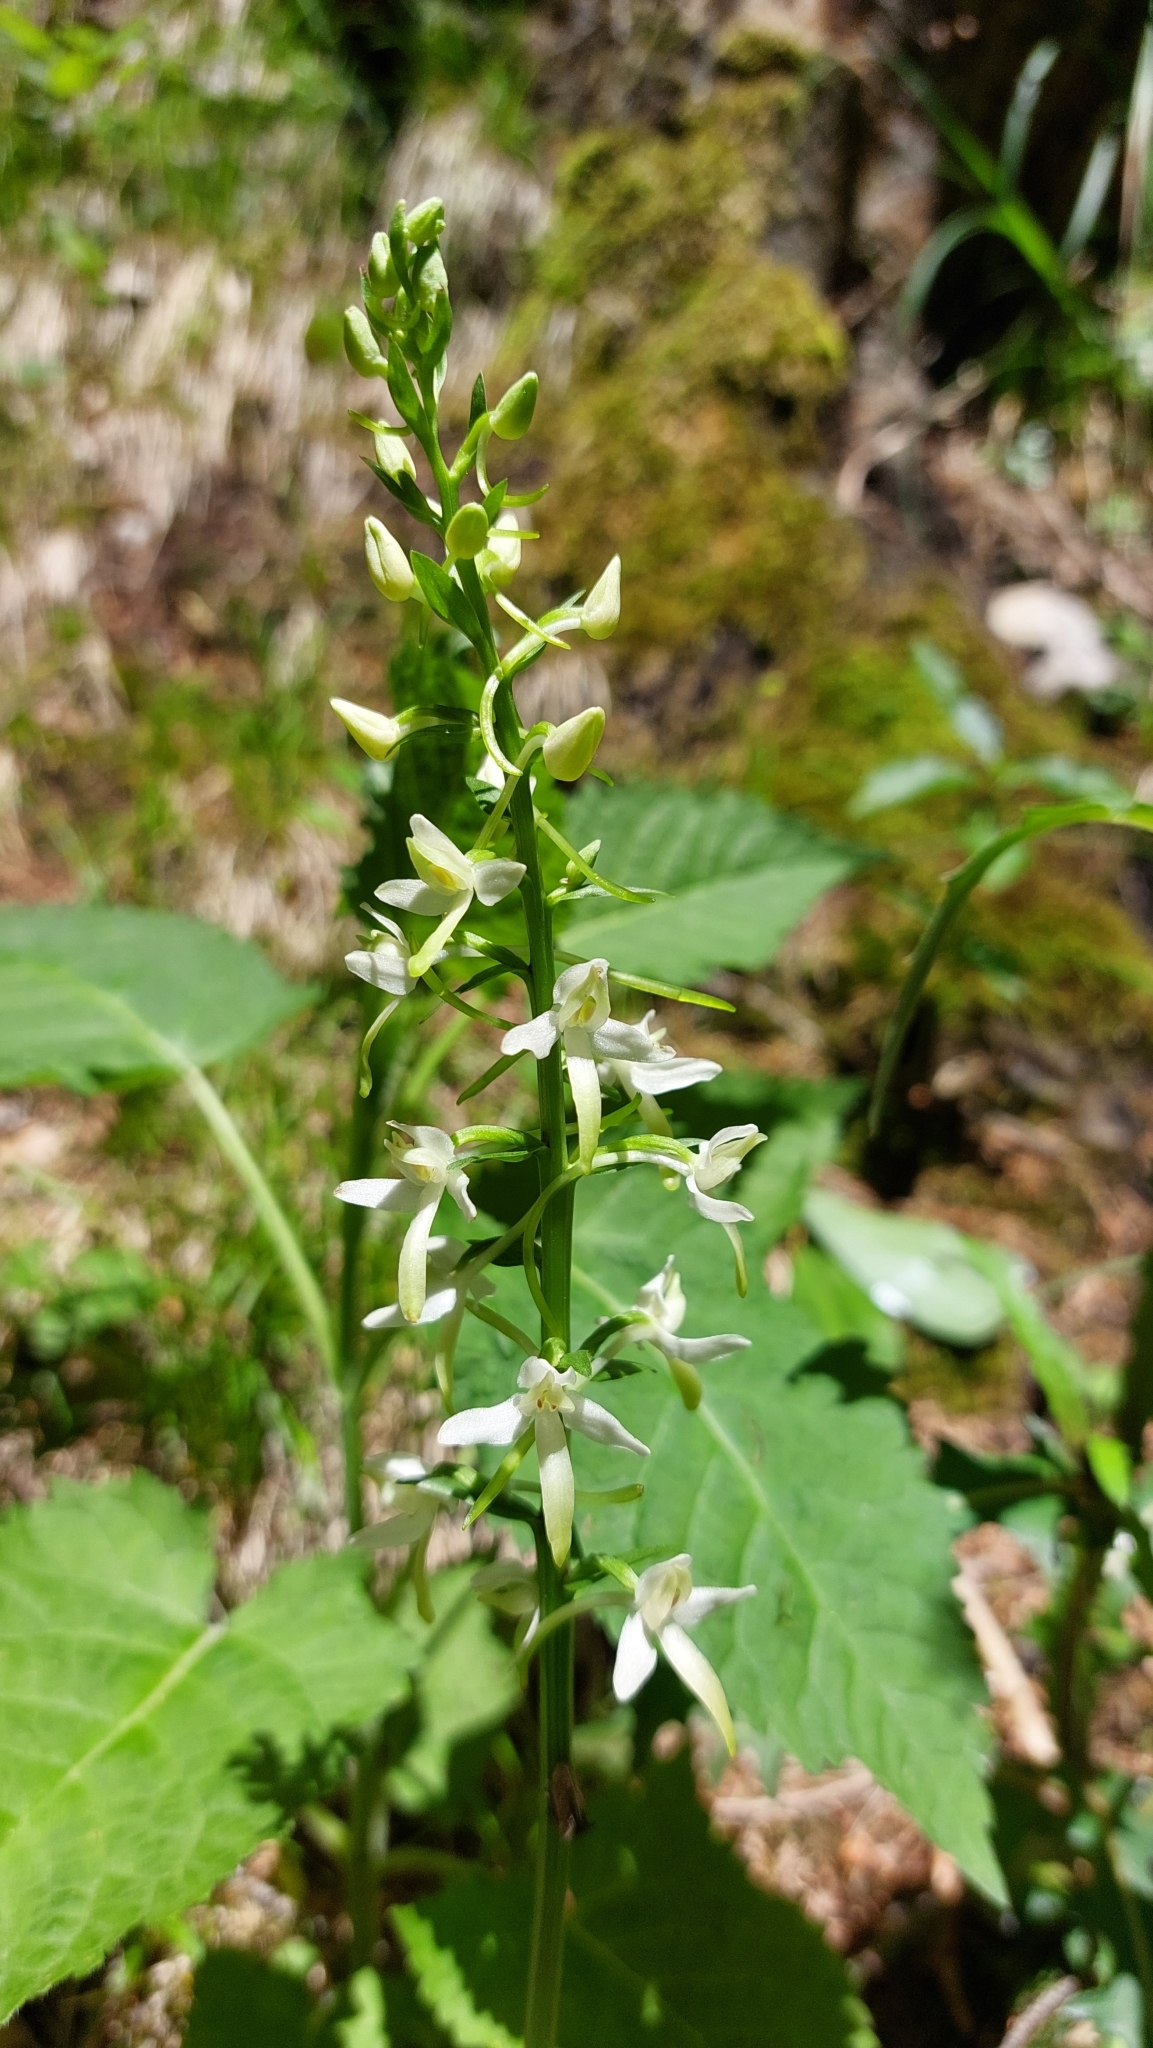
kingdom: Plantae
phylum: Tracheophyta
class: Liliopsida
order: Asparagales
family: Orchidaceae
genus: Platanthera
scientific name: Platanthera bifolia
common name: Lesser butterfly-orchid
